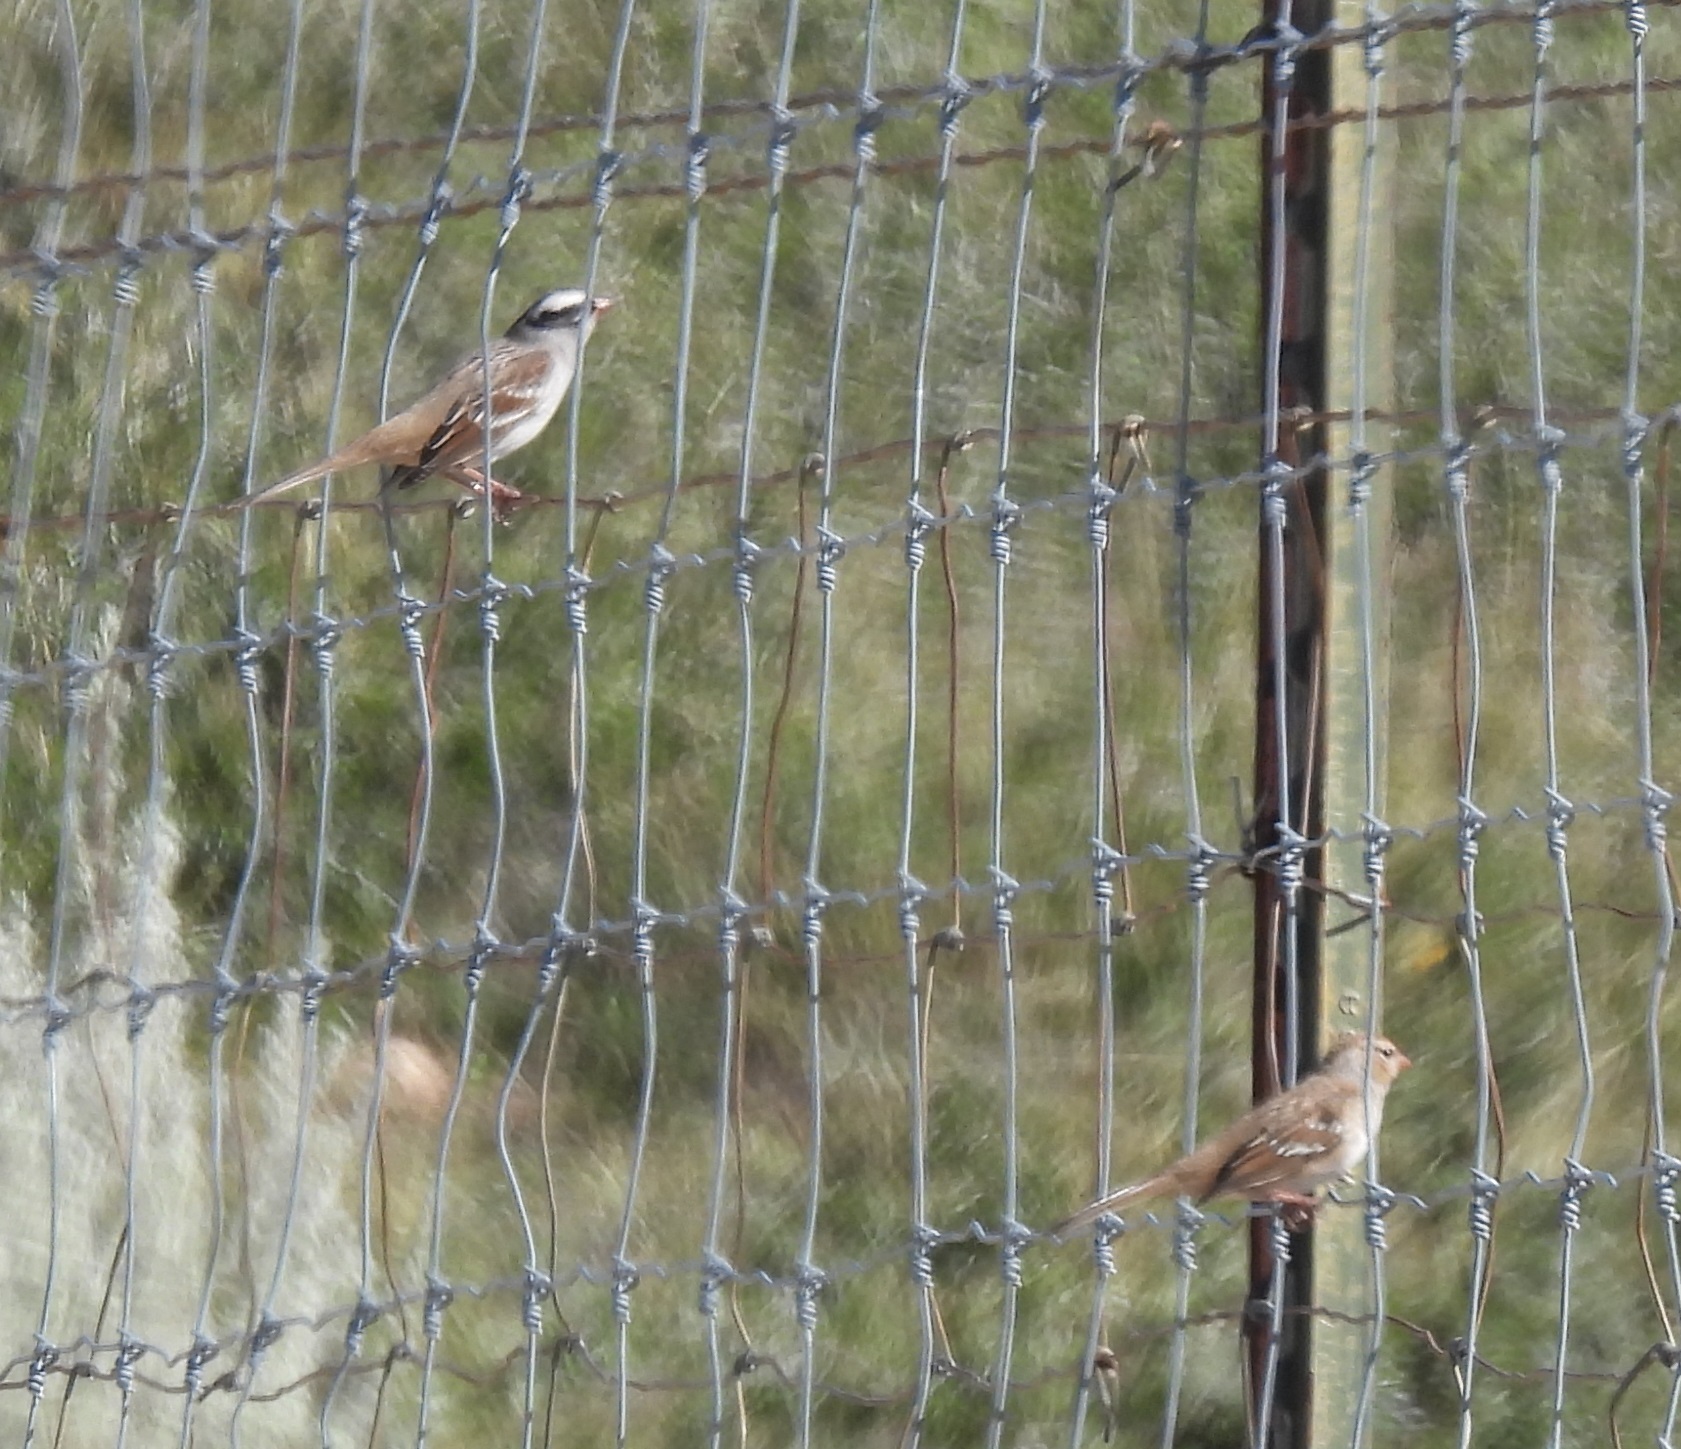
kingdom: Animalia
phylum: Chordata
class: Aves
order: Passeriformes
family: Passerellidae
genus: Zonotrichia
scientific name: Zonotrichia leucophrys
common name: White-crowned sparrow
